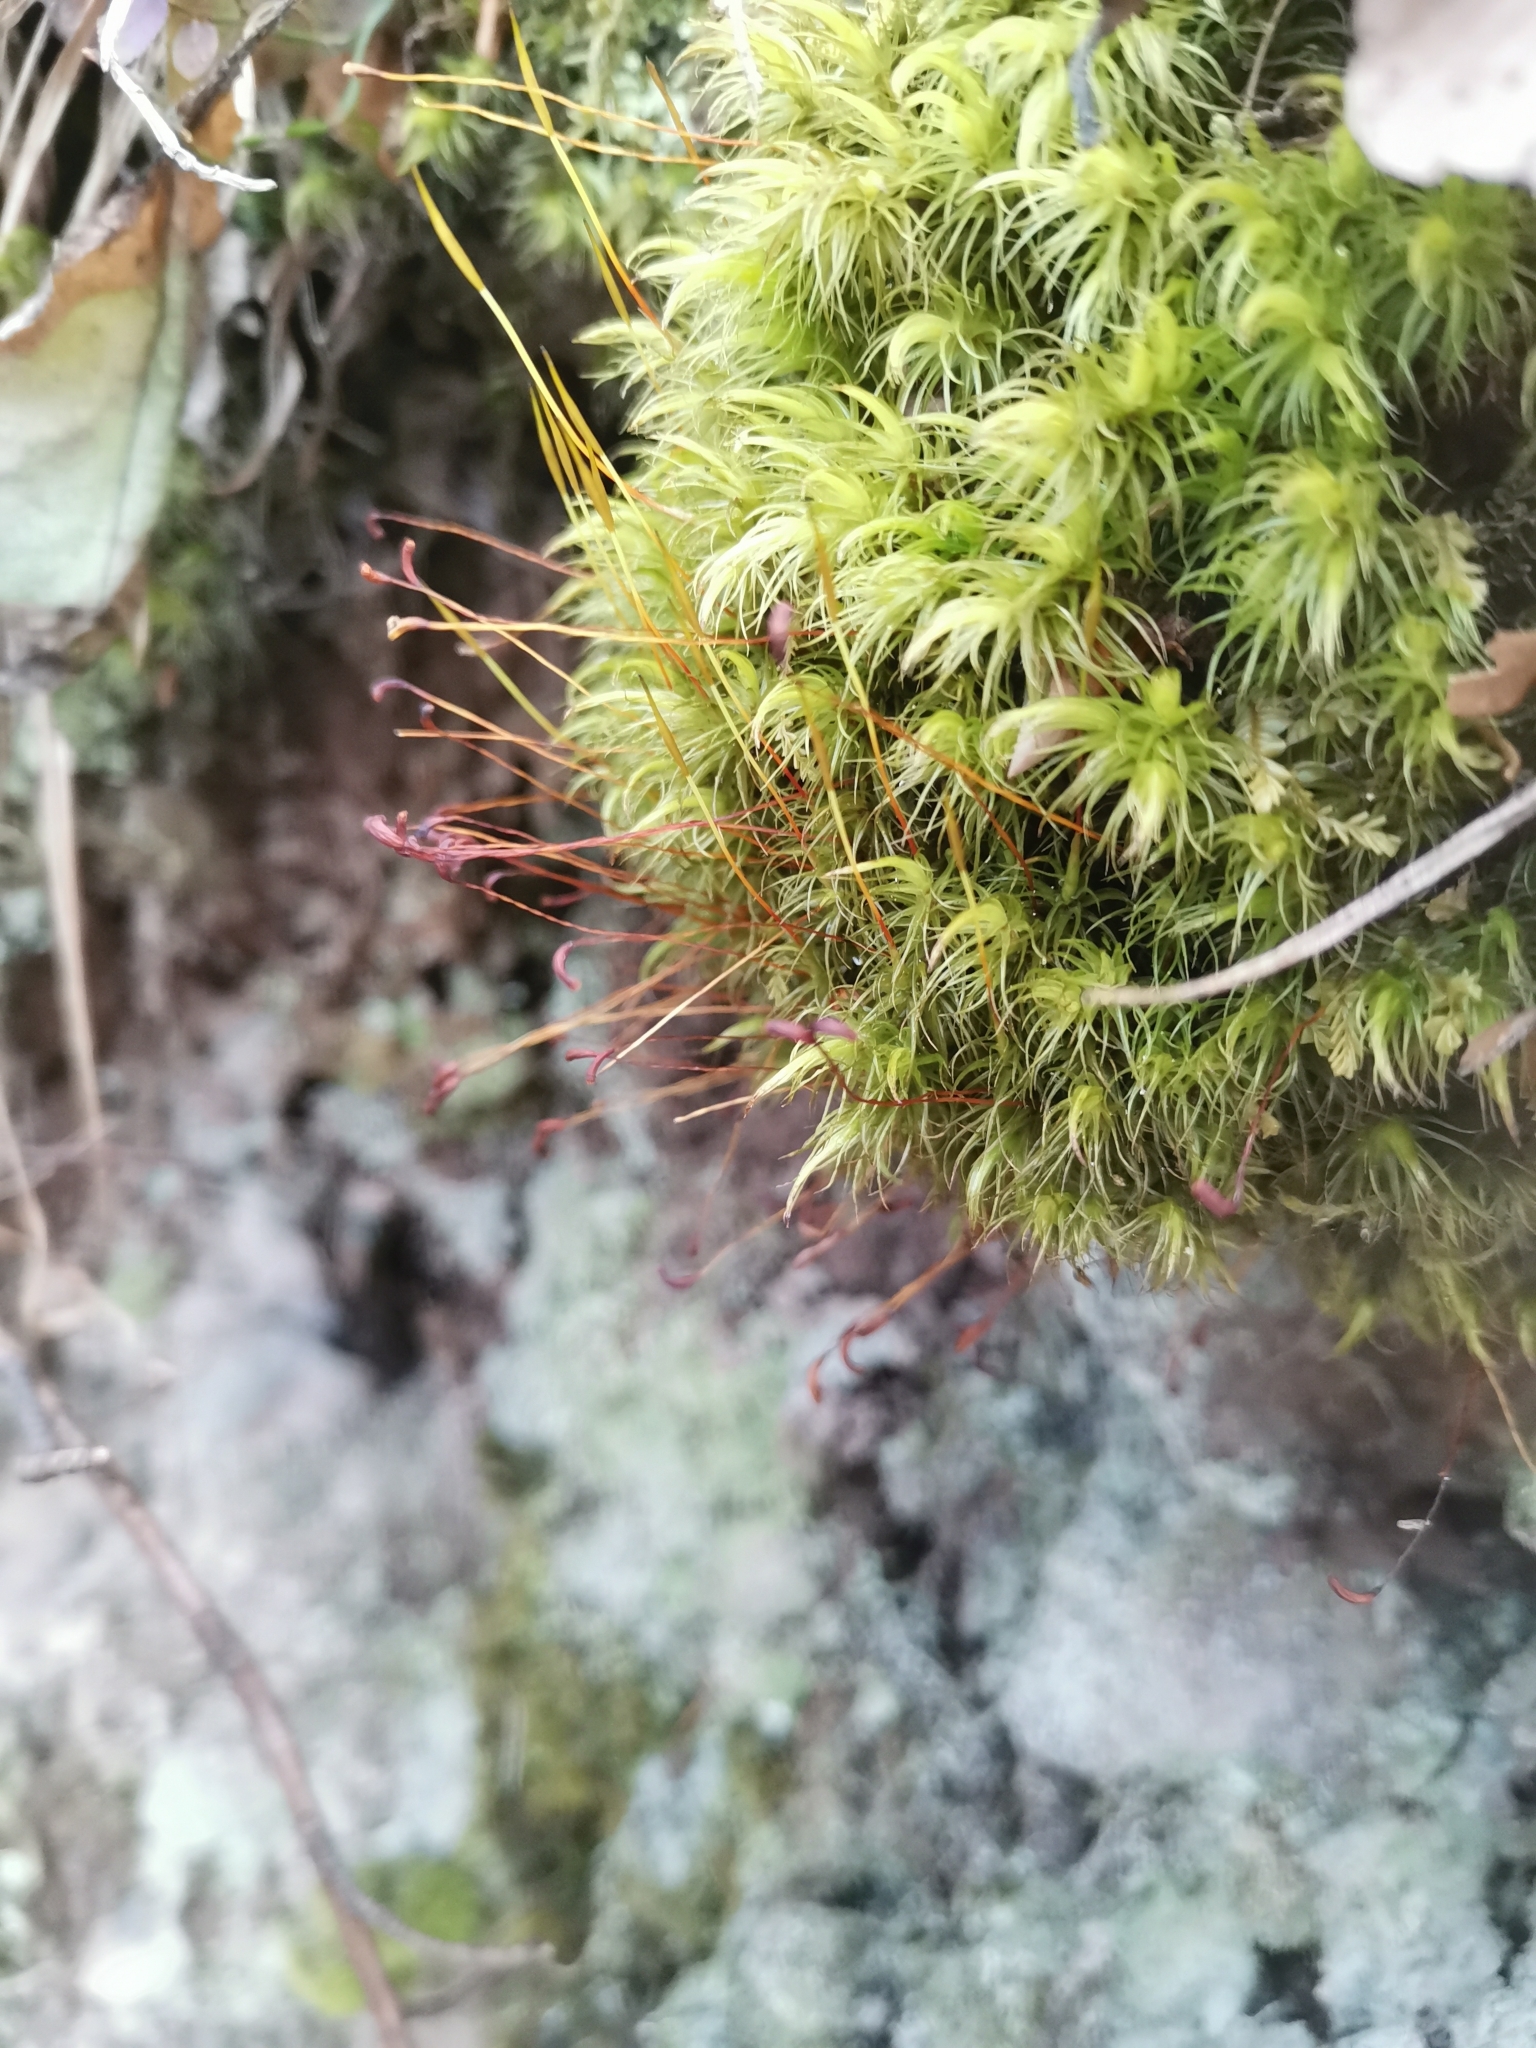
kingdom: Plantae
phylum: Bryophyta
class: Bryopsida
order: Dicranales
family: Dicranaceae
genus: Dicranum
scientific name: Dicranum scoparium
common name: Broom fork-moss
